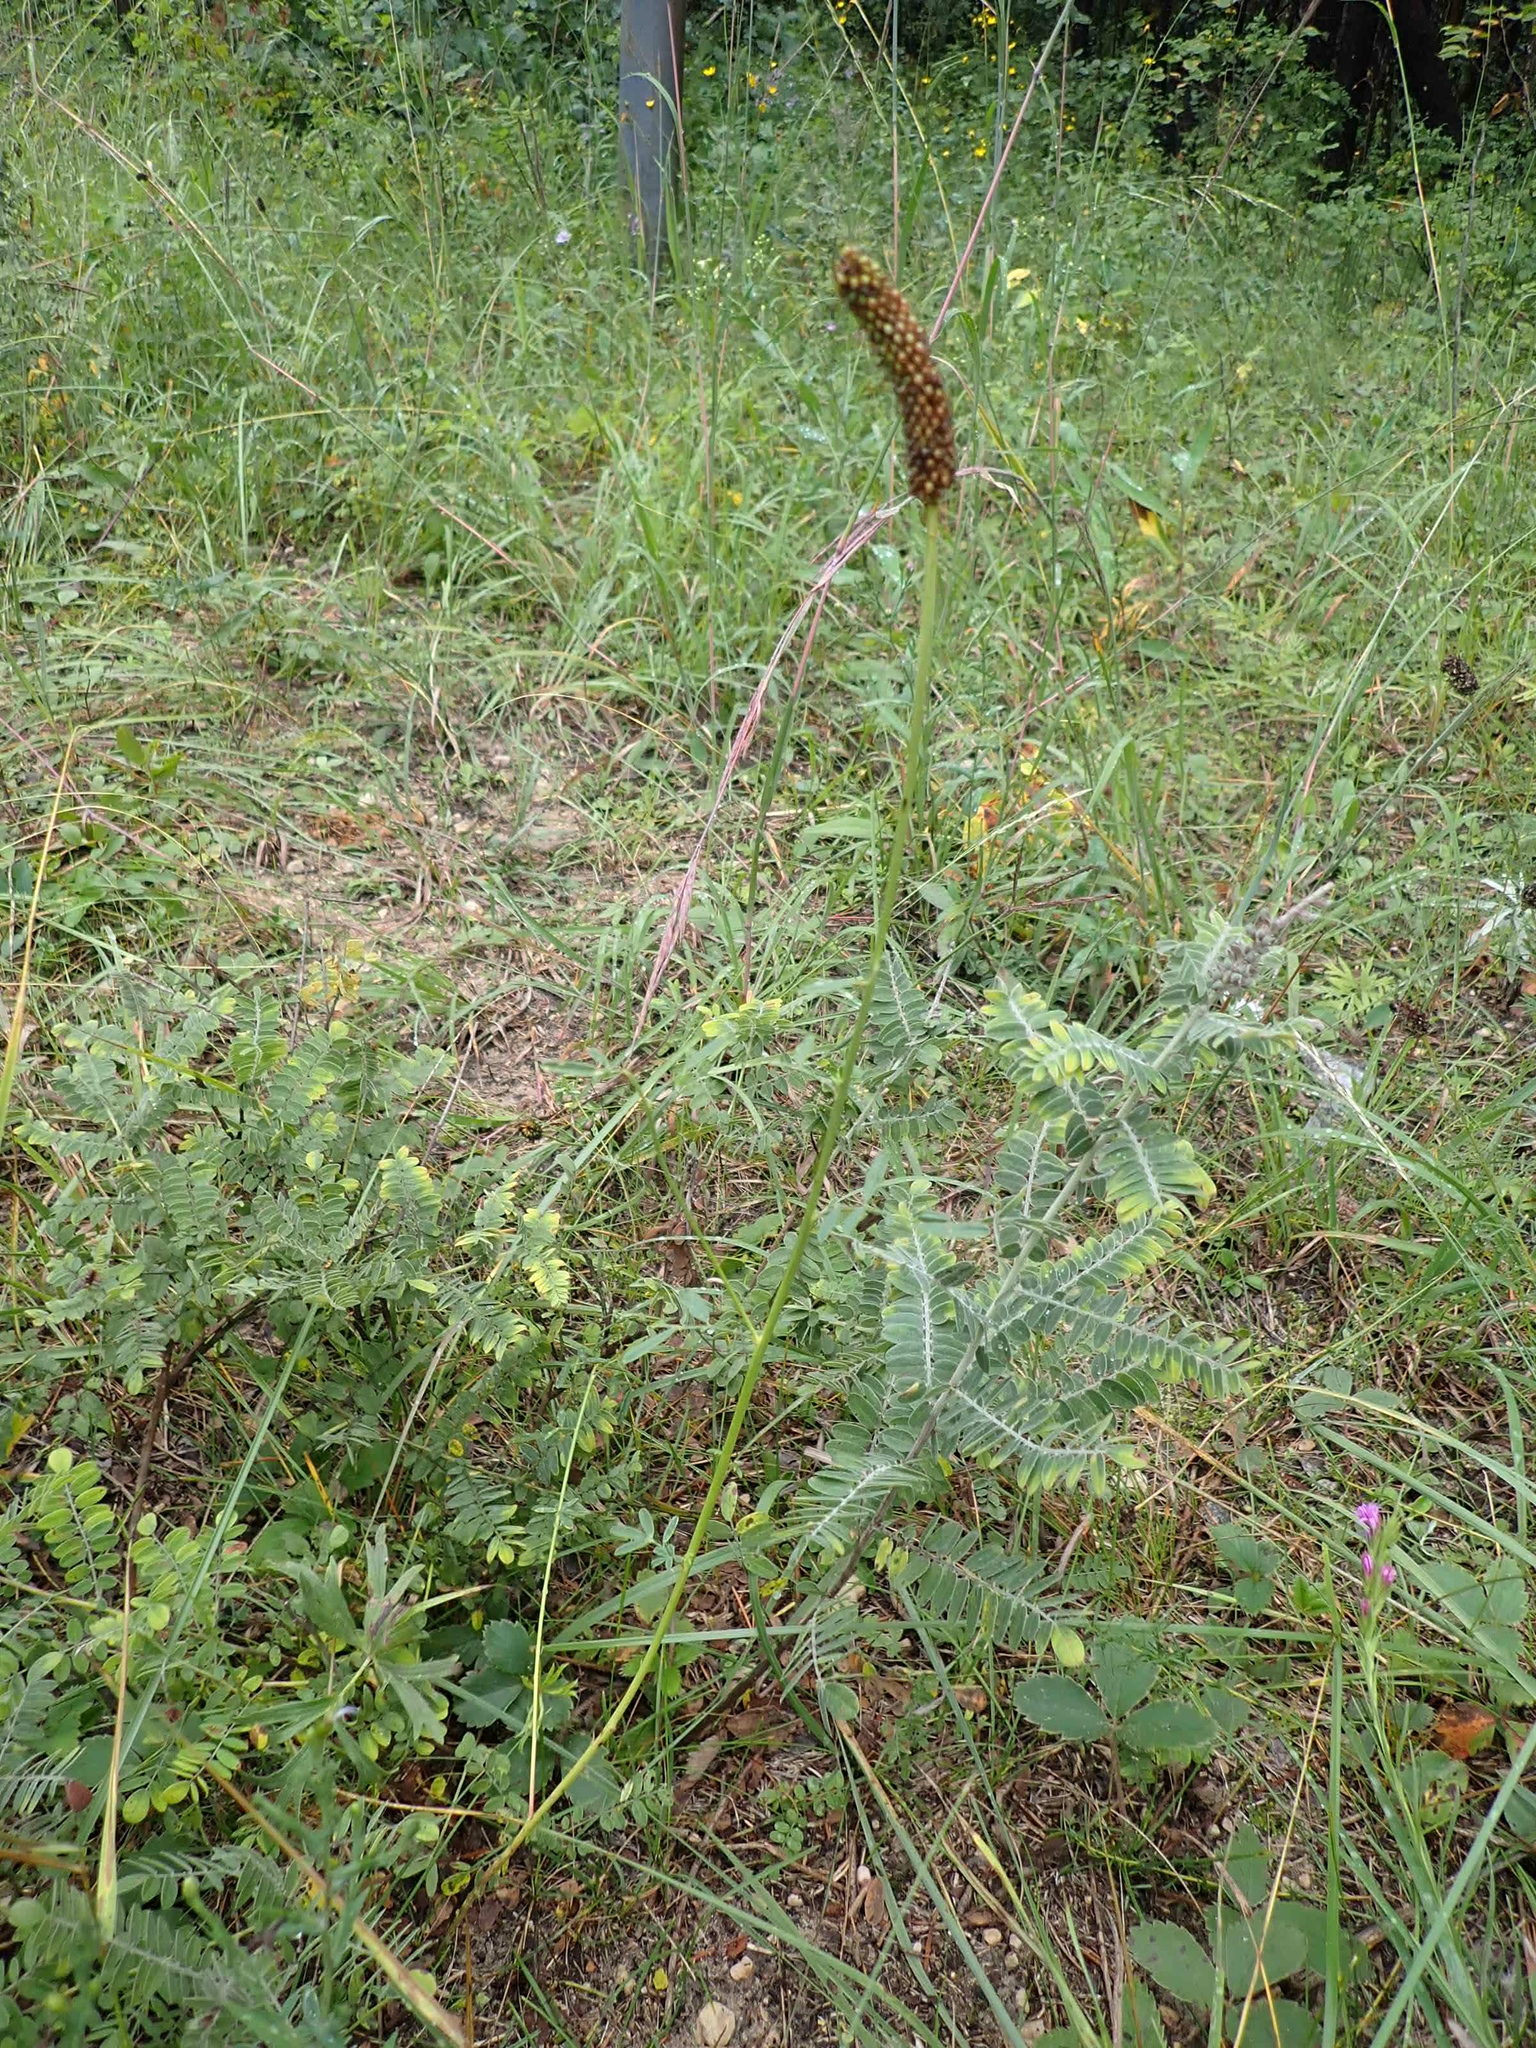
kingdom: Plantae
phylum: Tracheophyta
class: Magnoliopsida
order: Fabales
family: Fabaceae
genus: Amorpha
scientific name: Amorpha canescens
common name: Leadplant
